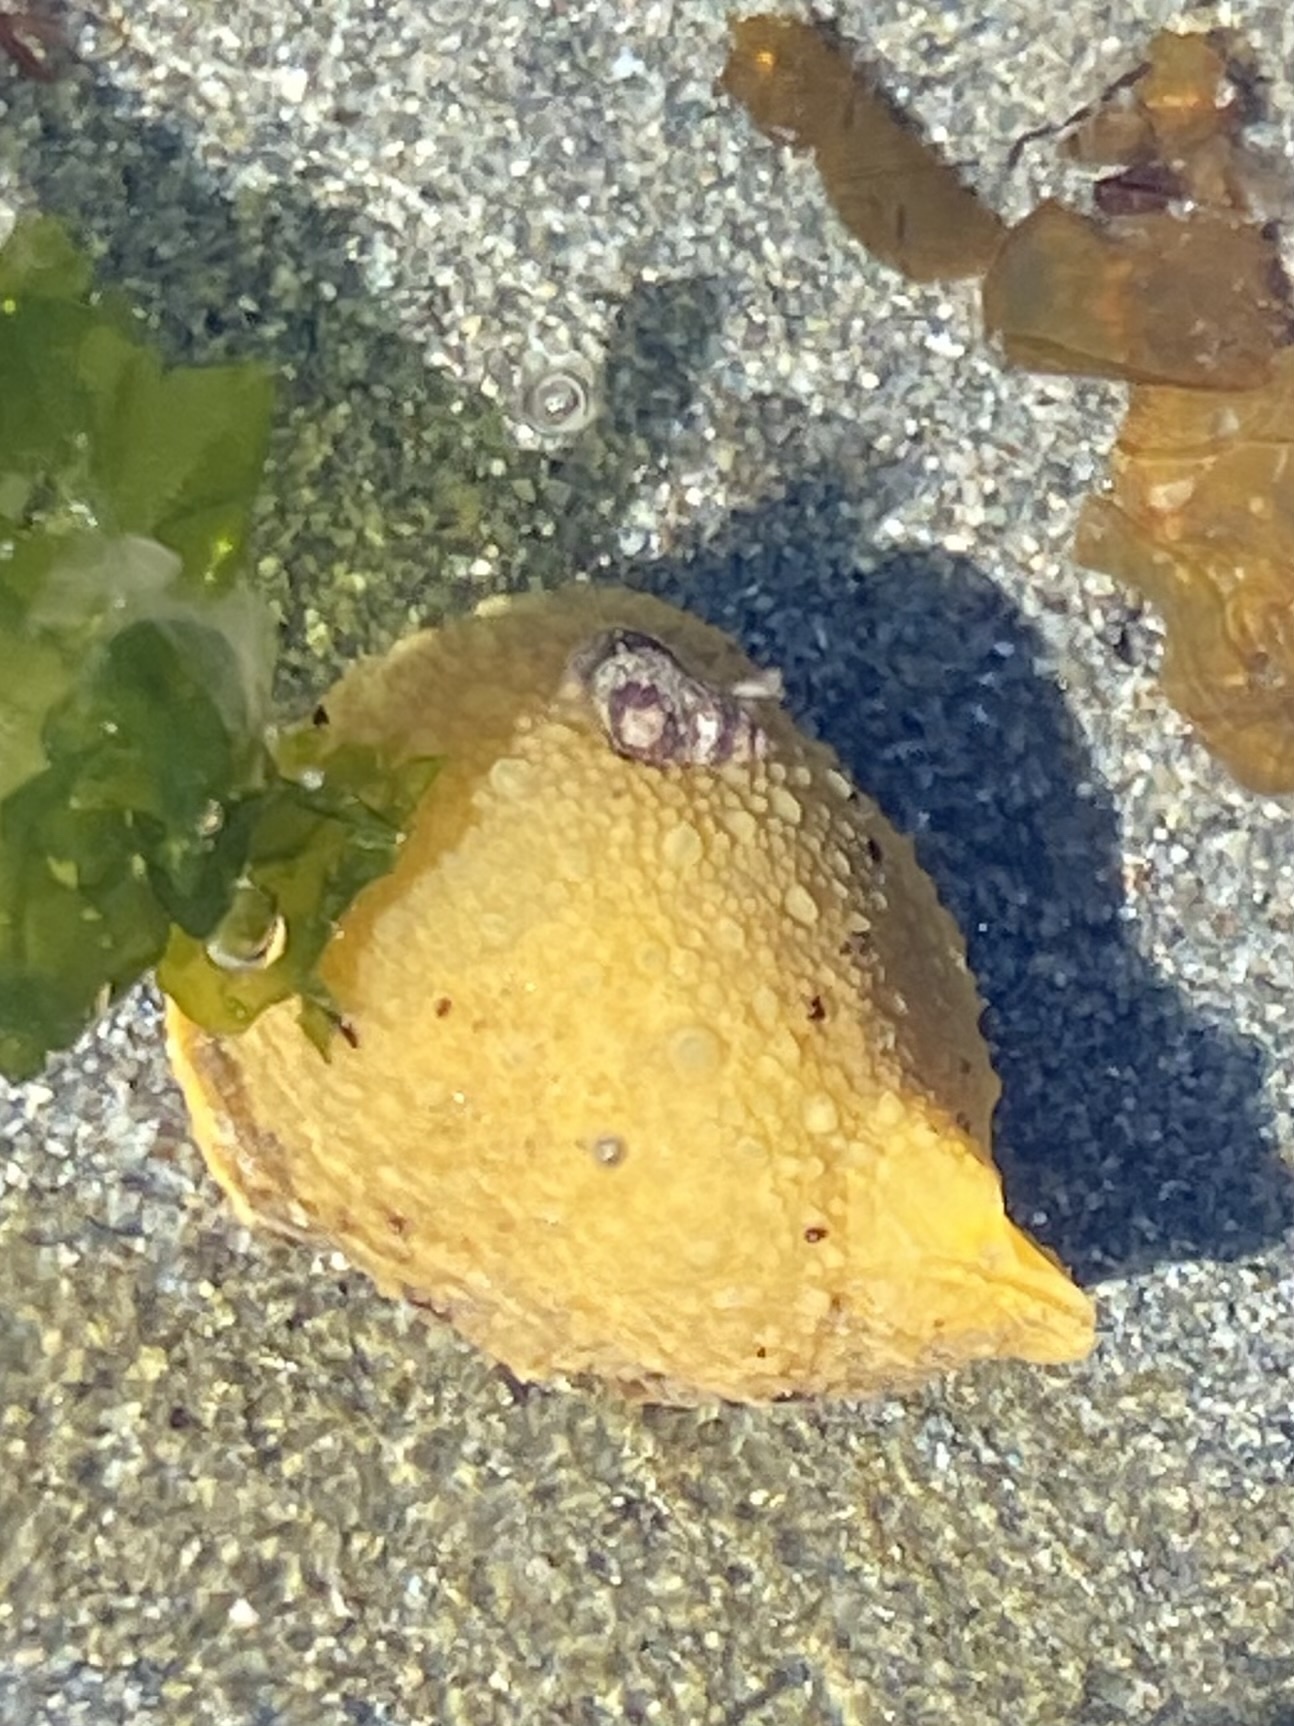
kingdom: Animalia
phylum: Mollusca
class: Gastropoda
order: Nudibranchia
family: Dorididae
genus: Doris
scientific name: Doris montereyensis
